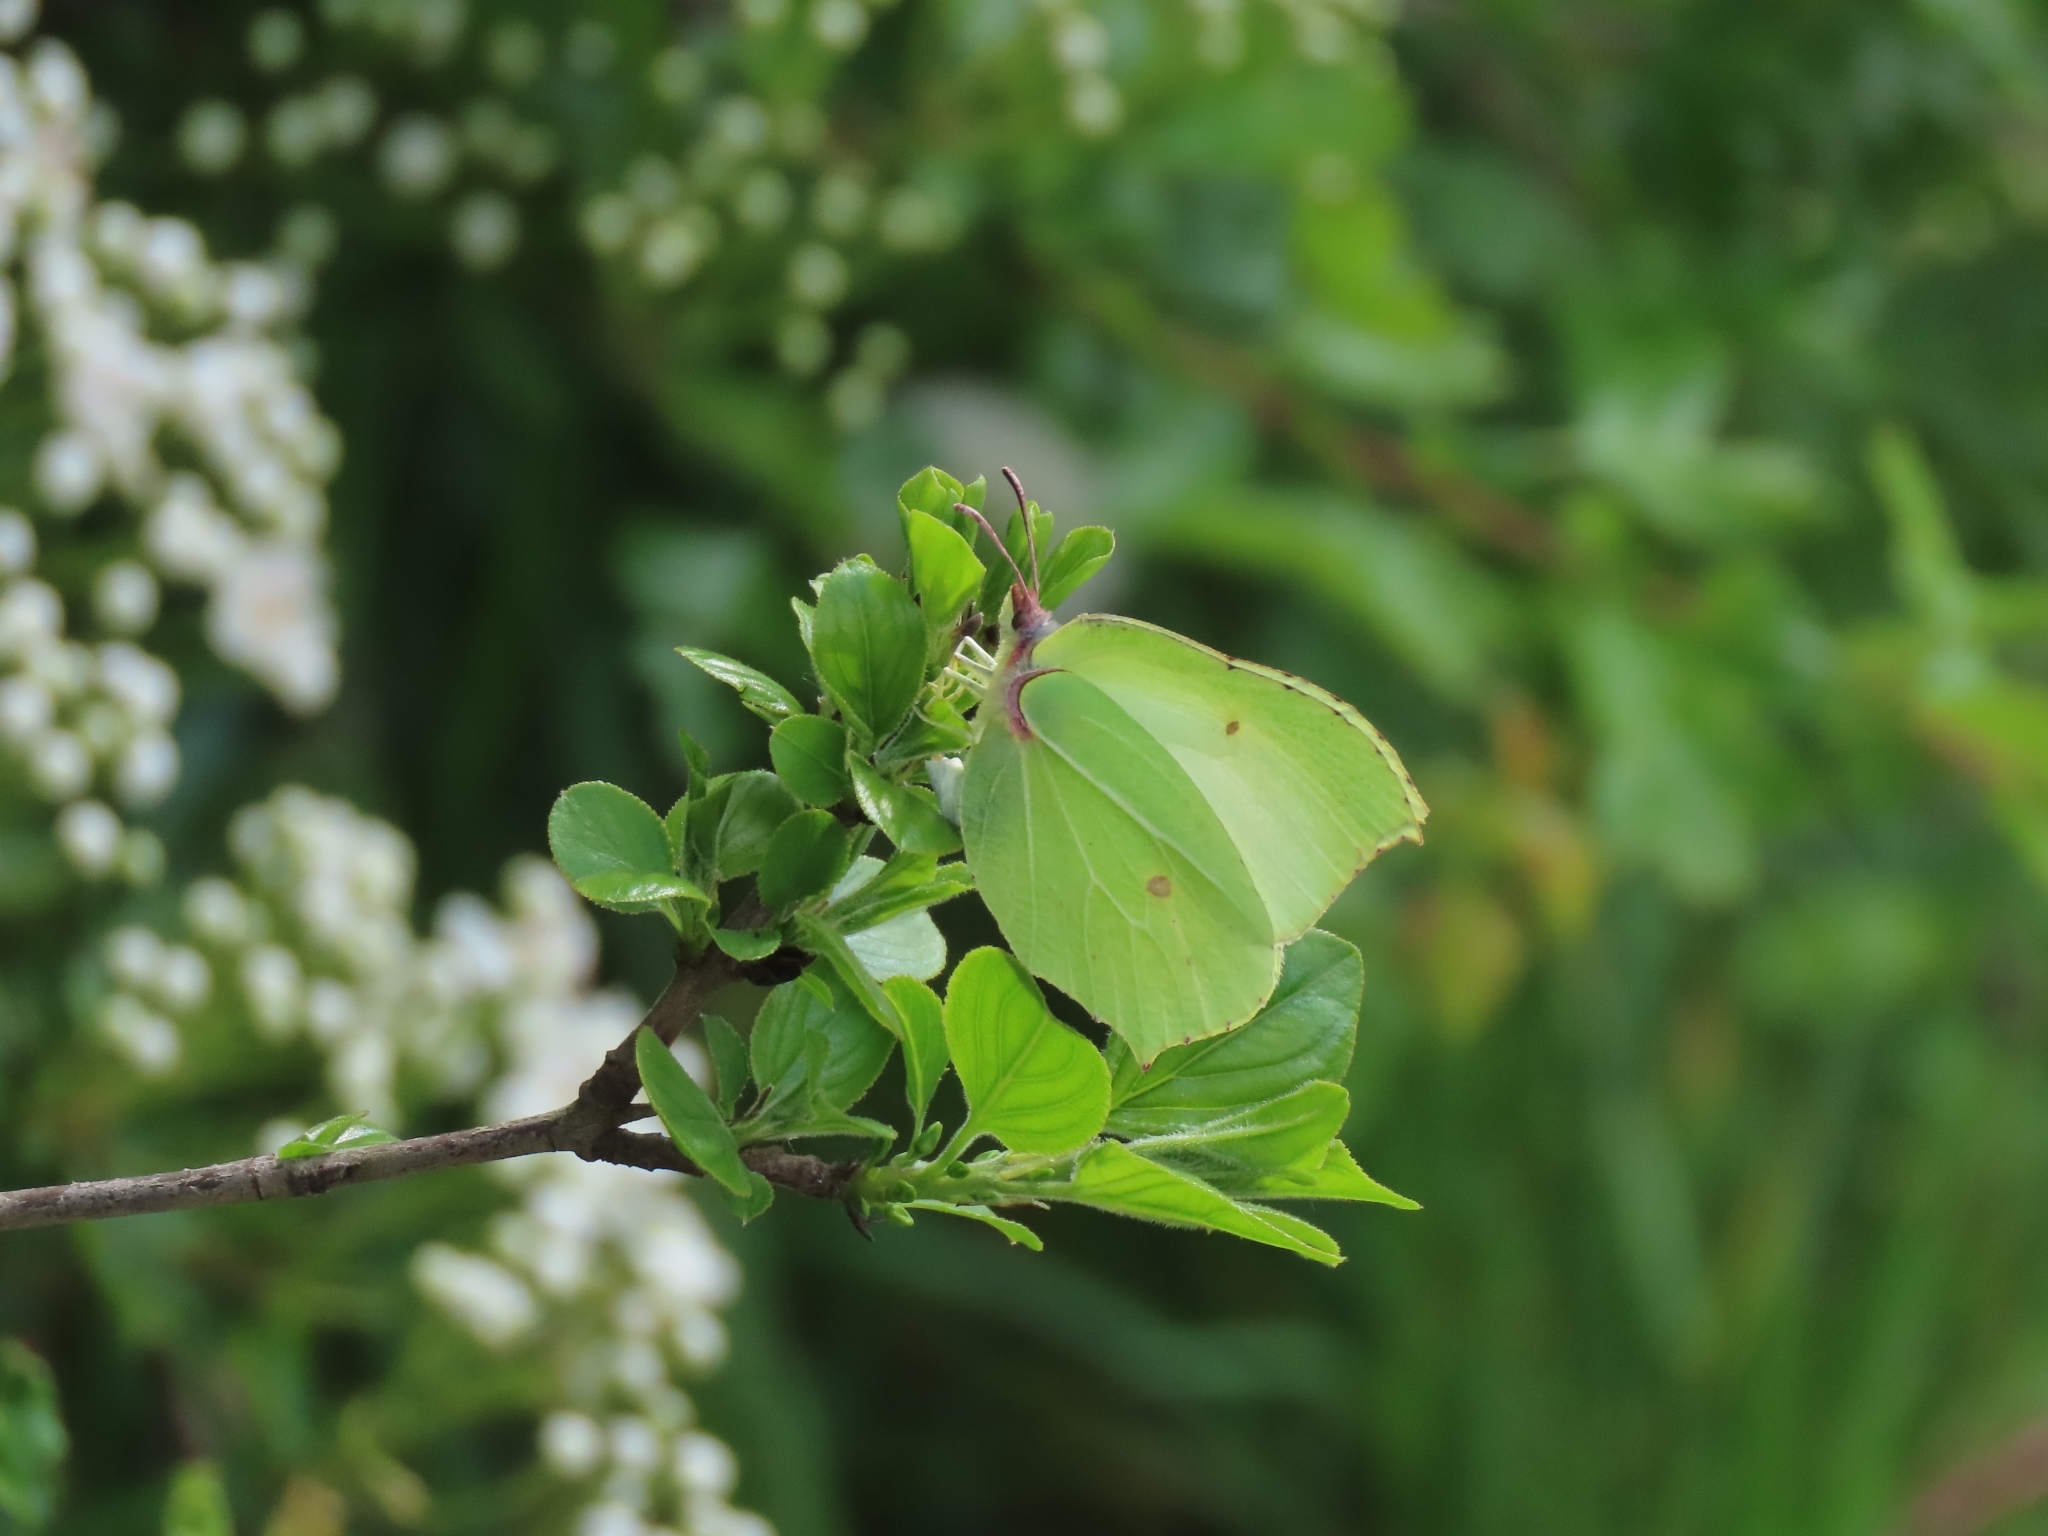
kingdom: Animalia
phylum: Arthropoda
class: Insecta
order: Lepidoptera
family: Pieridae
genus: Gonepteryx
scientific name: Gonepteryx rhamni
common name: Brimstone
